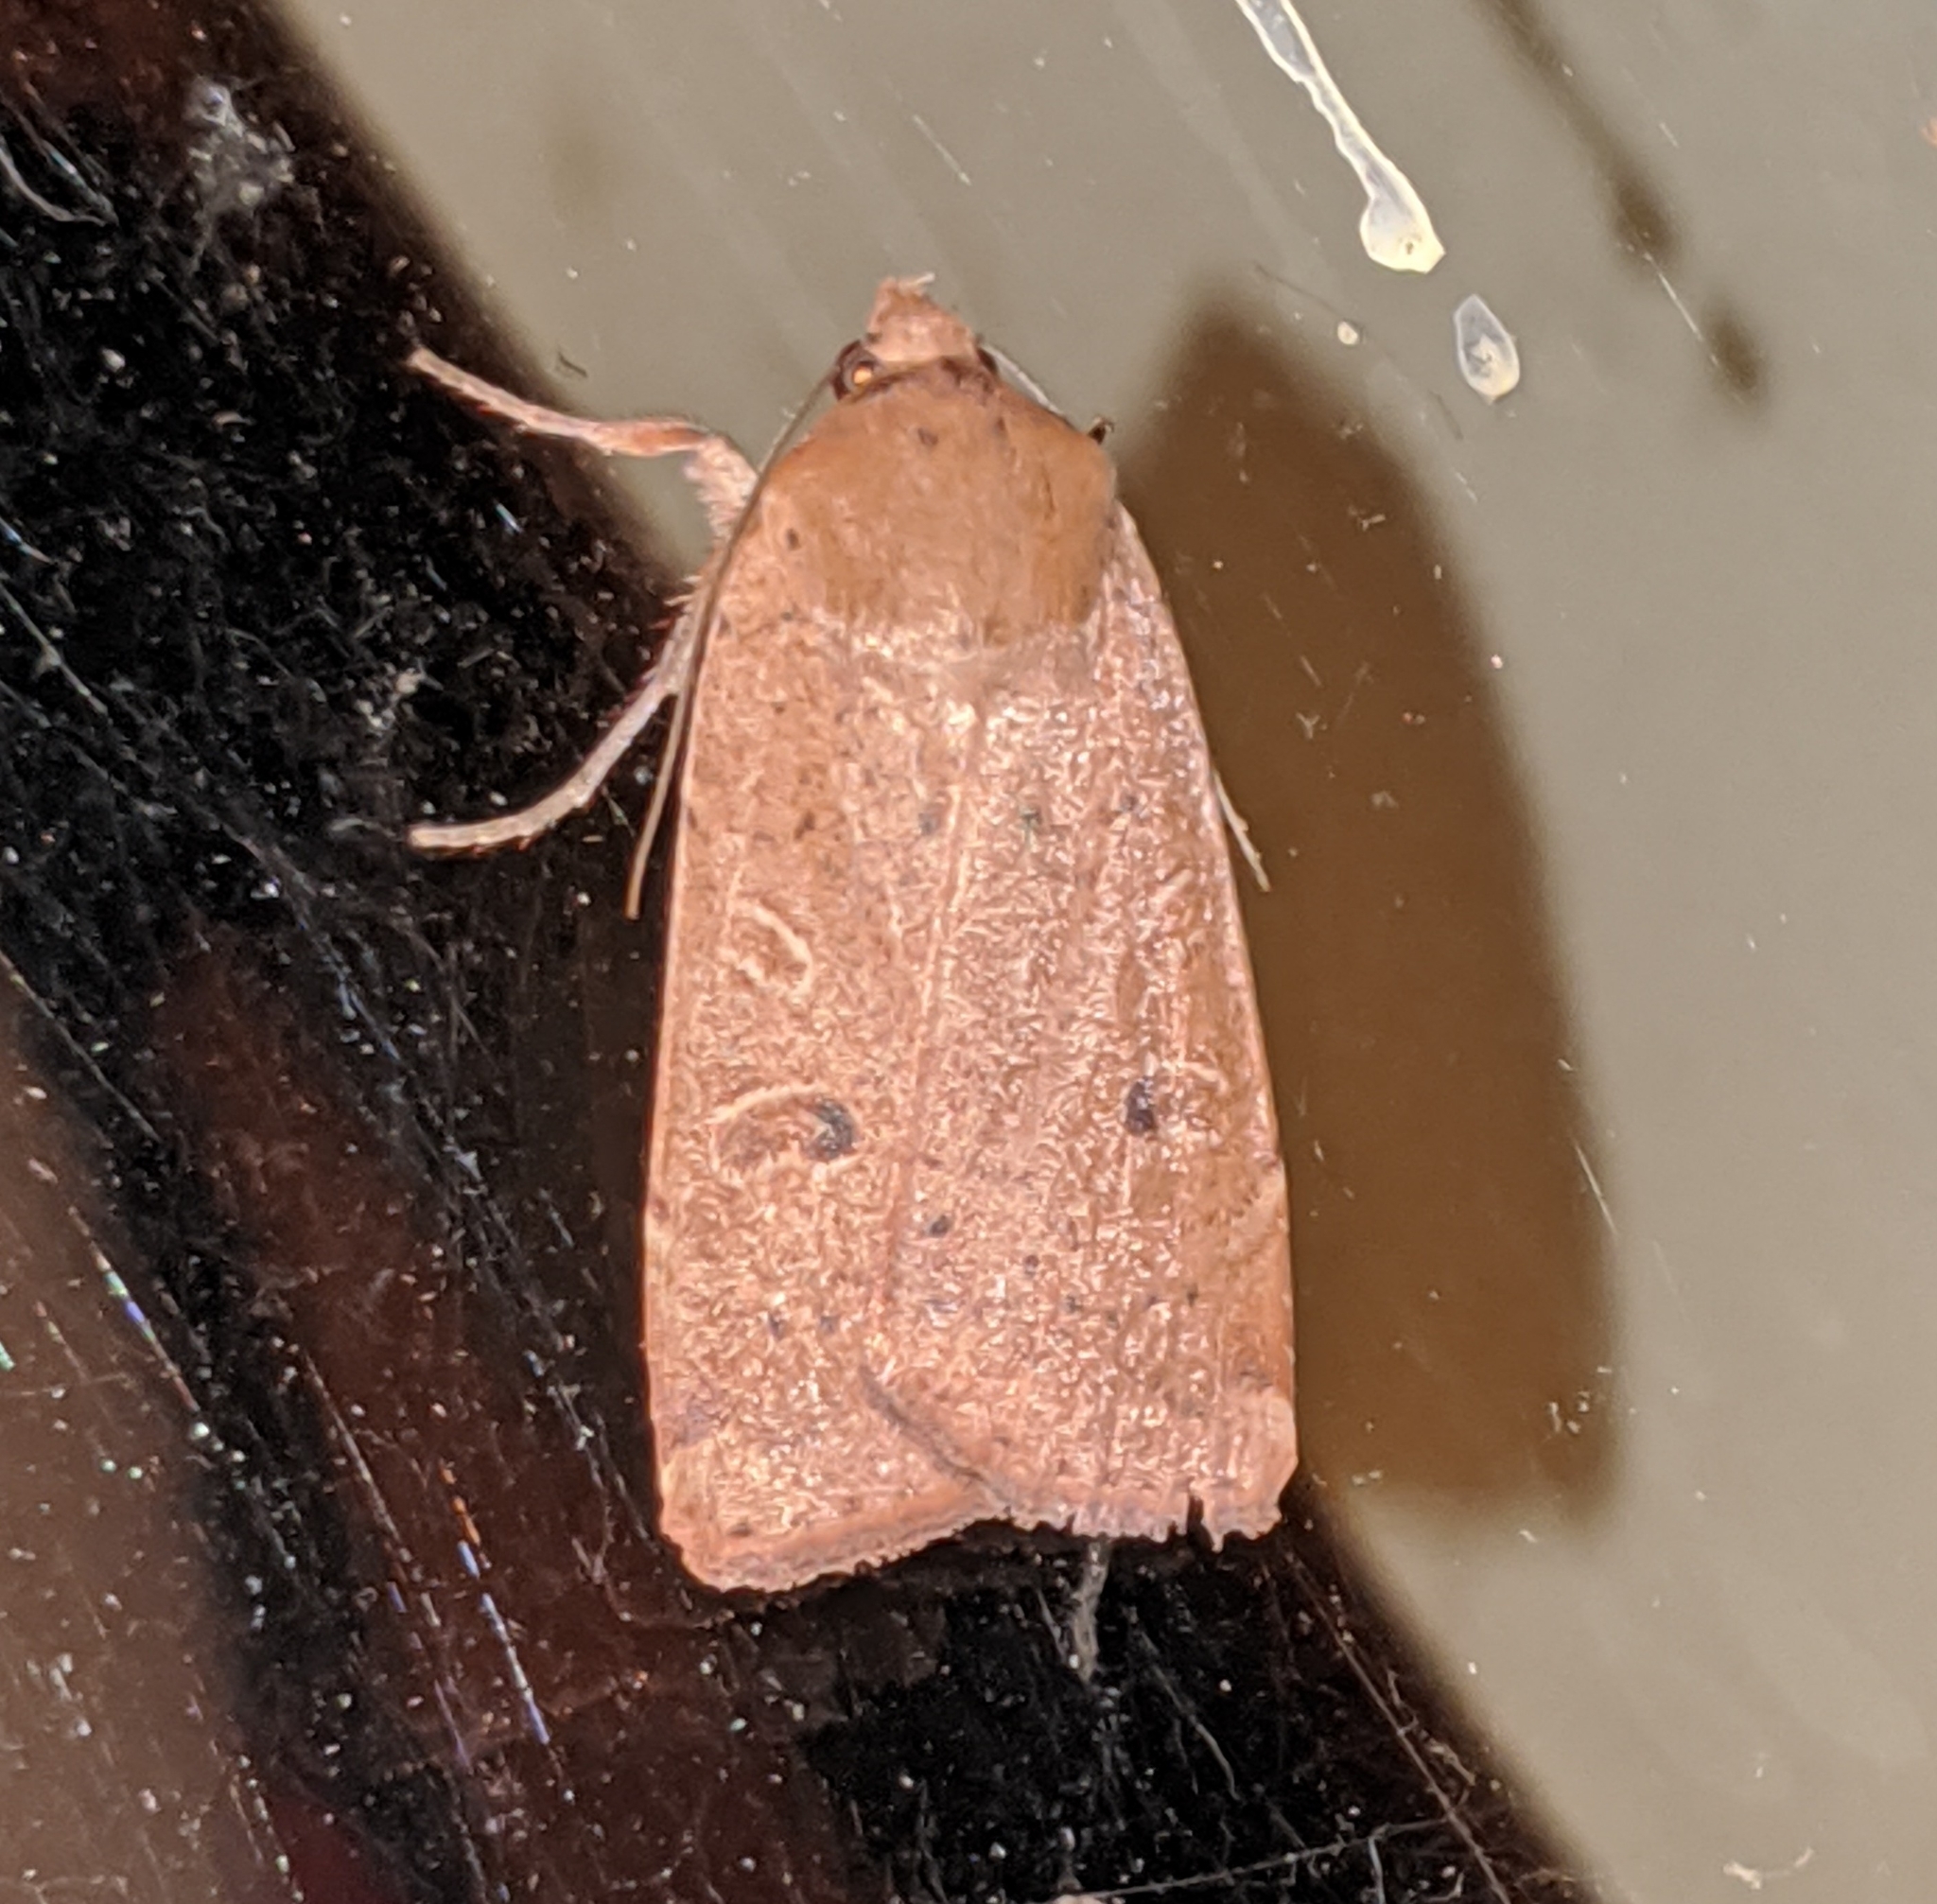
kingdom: Animalia
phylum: Arthropoda
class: Insecta
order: Lepidoptera
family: Noctuidae
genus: Noctua
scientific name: Noctua comes
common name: Lesser yellow underwing
